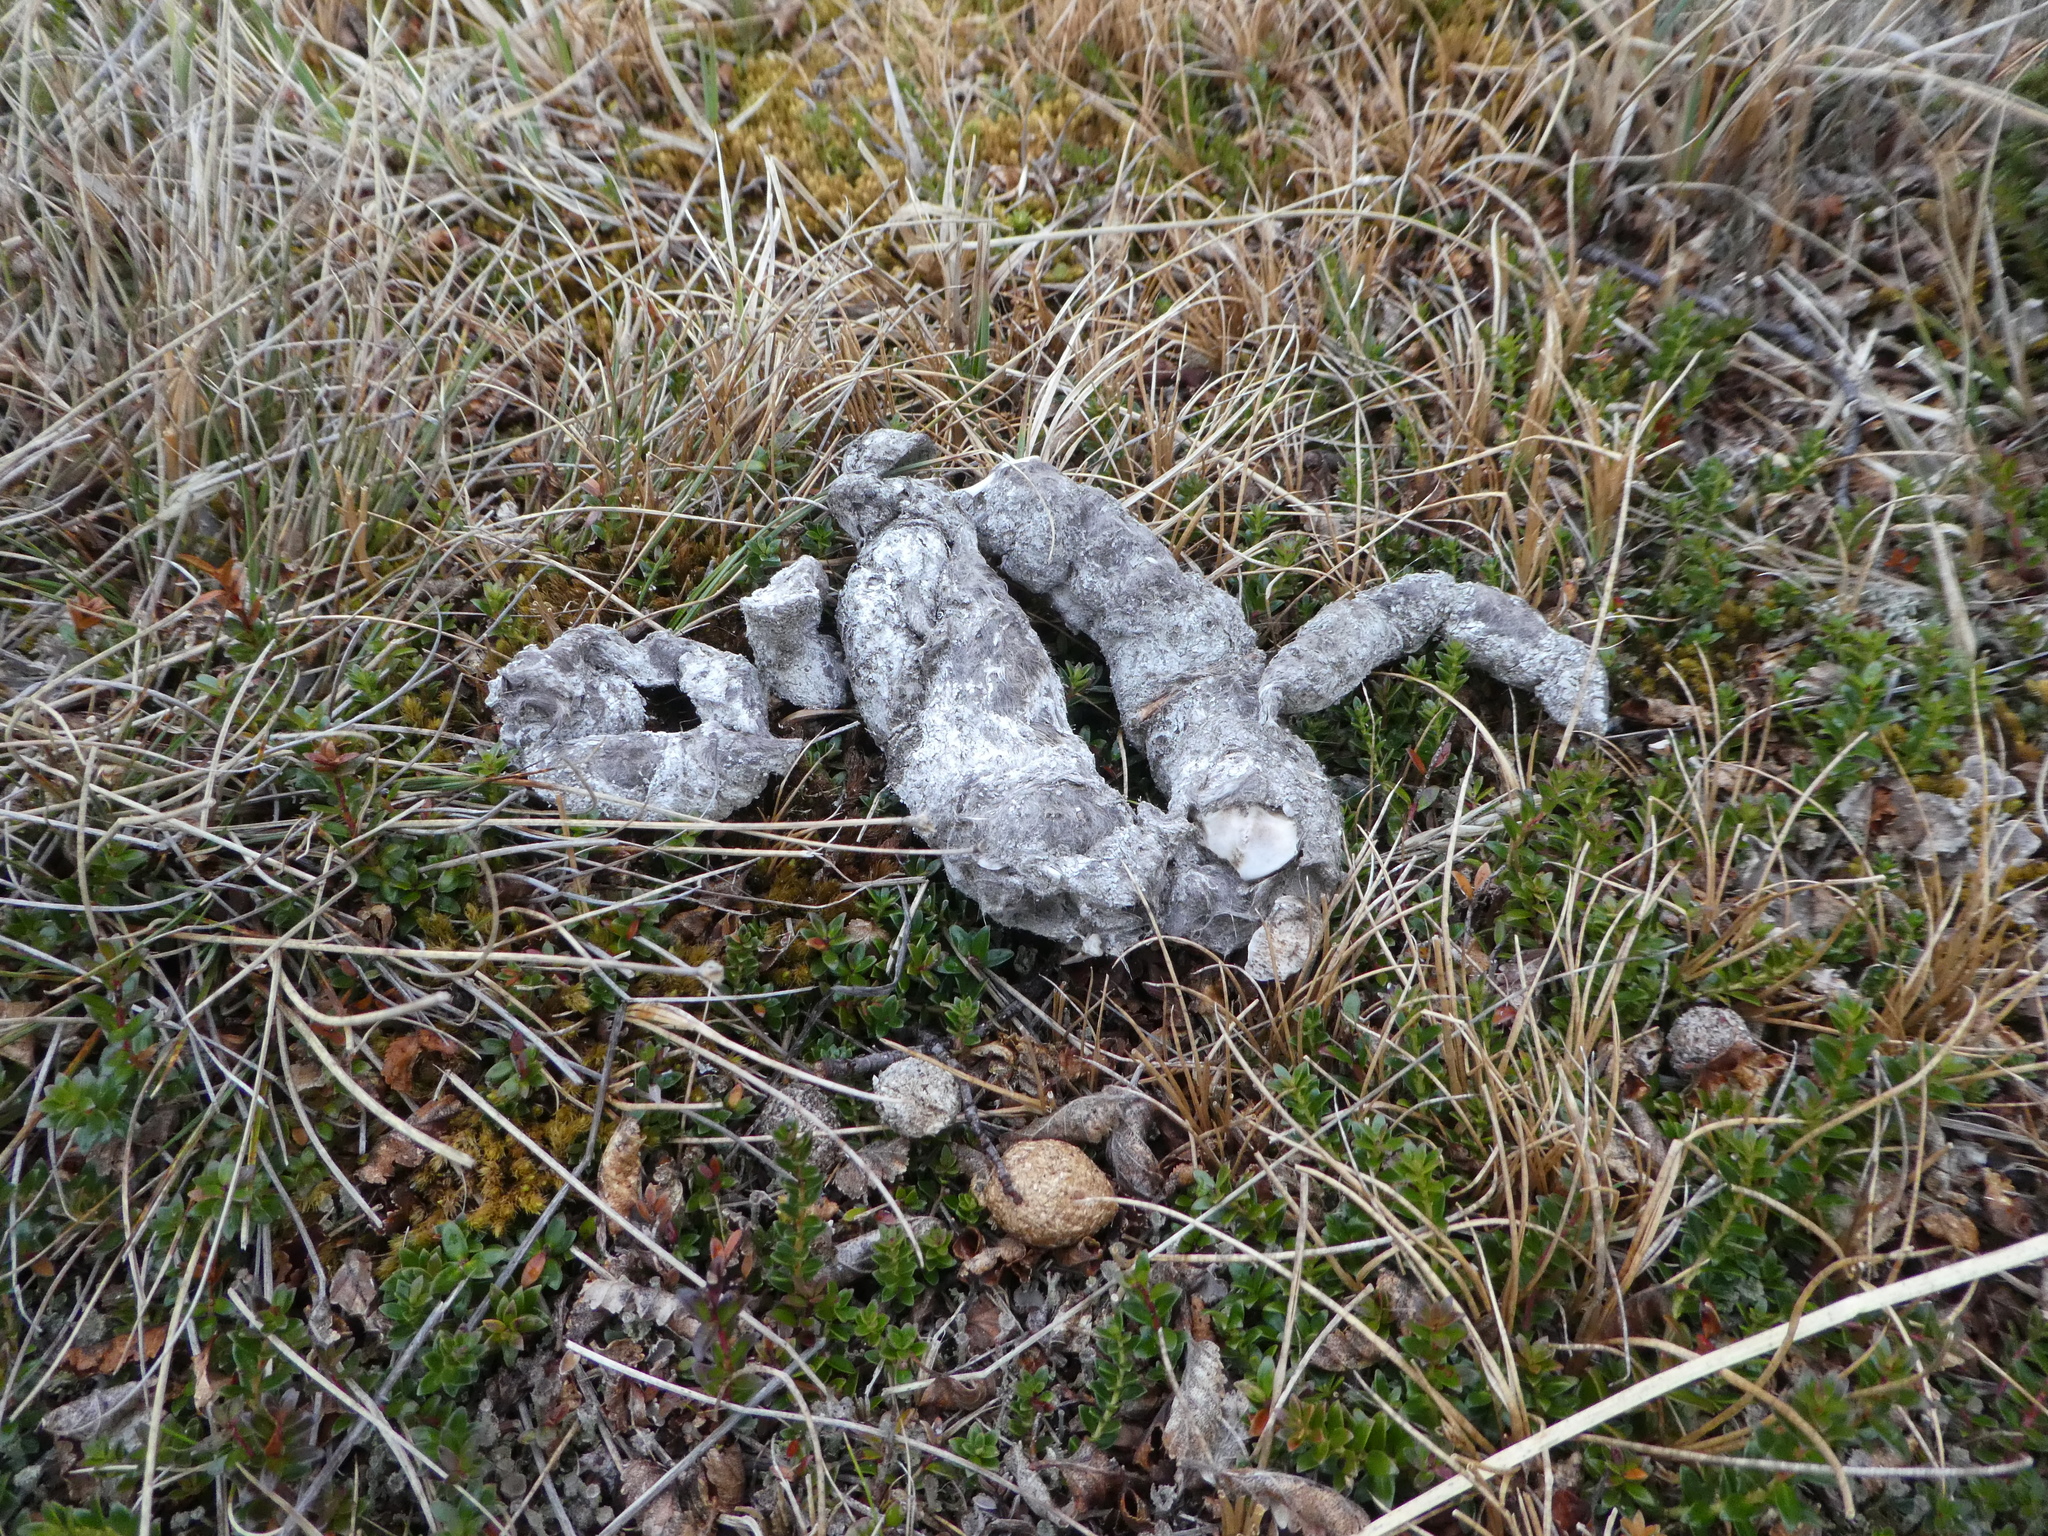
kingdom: Animalia
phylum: Chordata
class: Mammalia
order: Carnivora
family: Felidae
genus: Puma
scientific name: Puma concolor
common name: Puma
